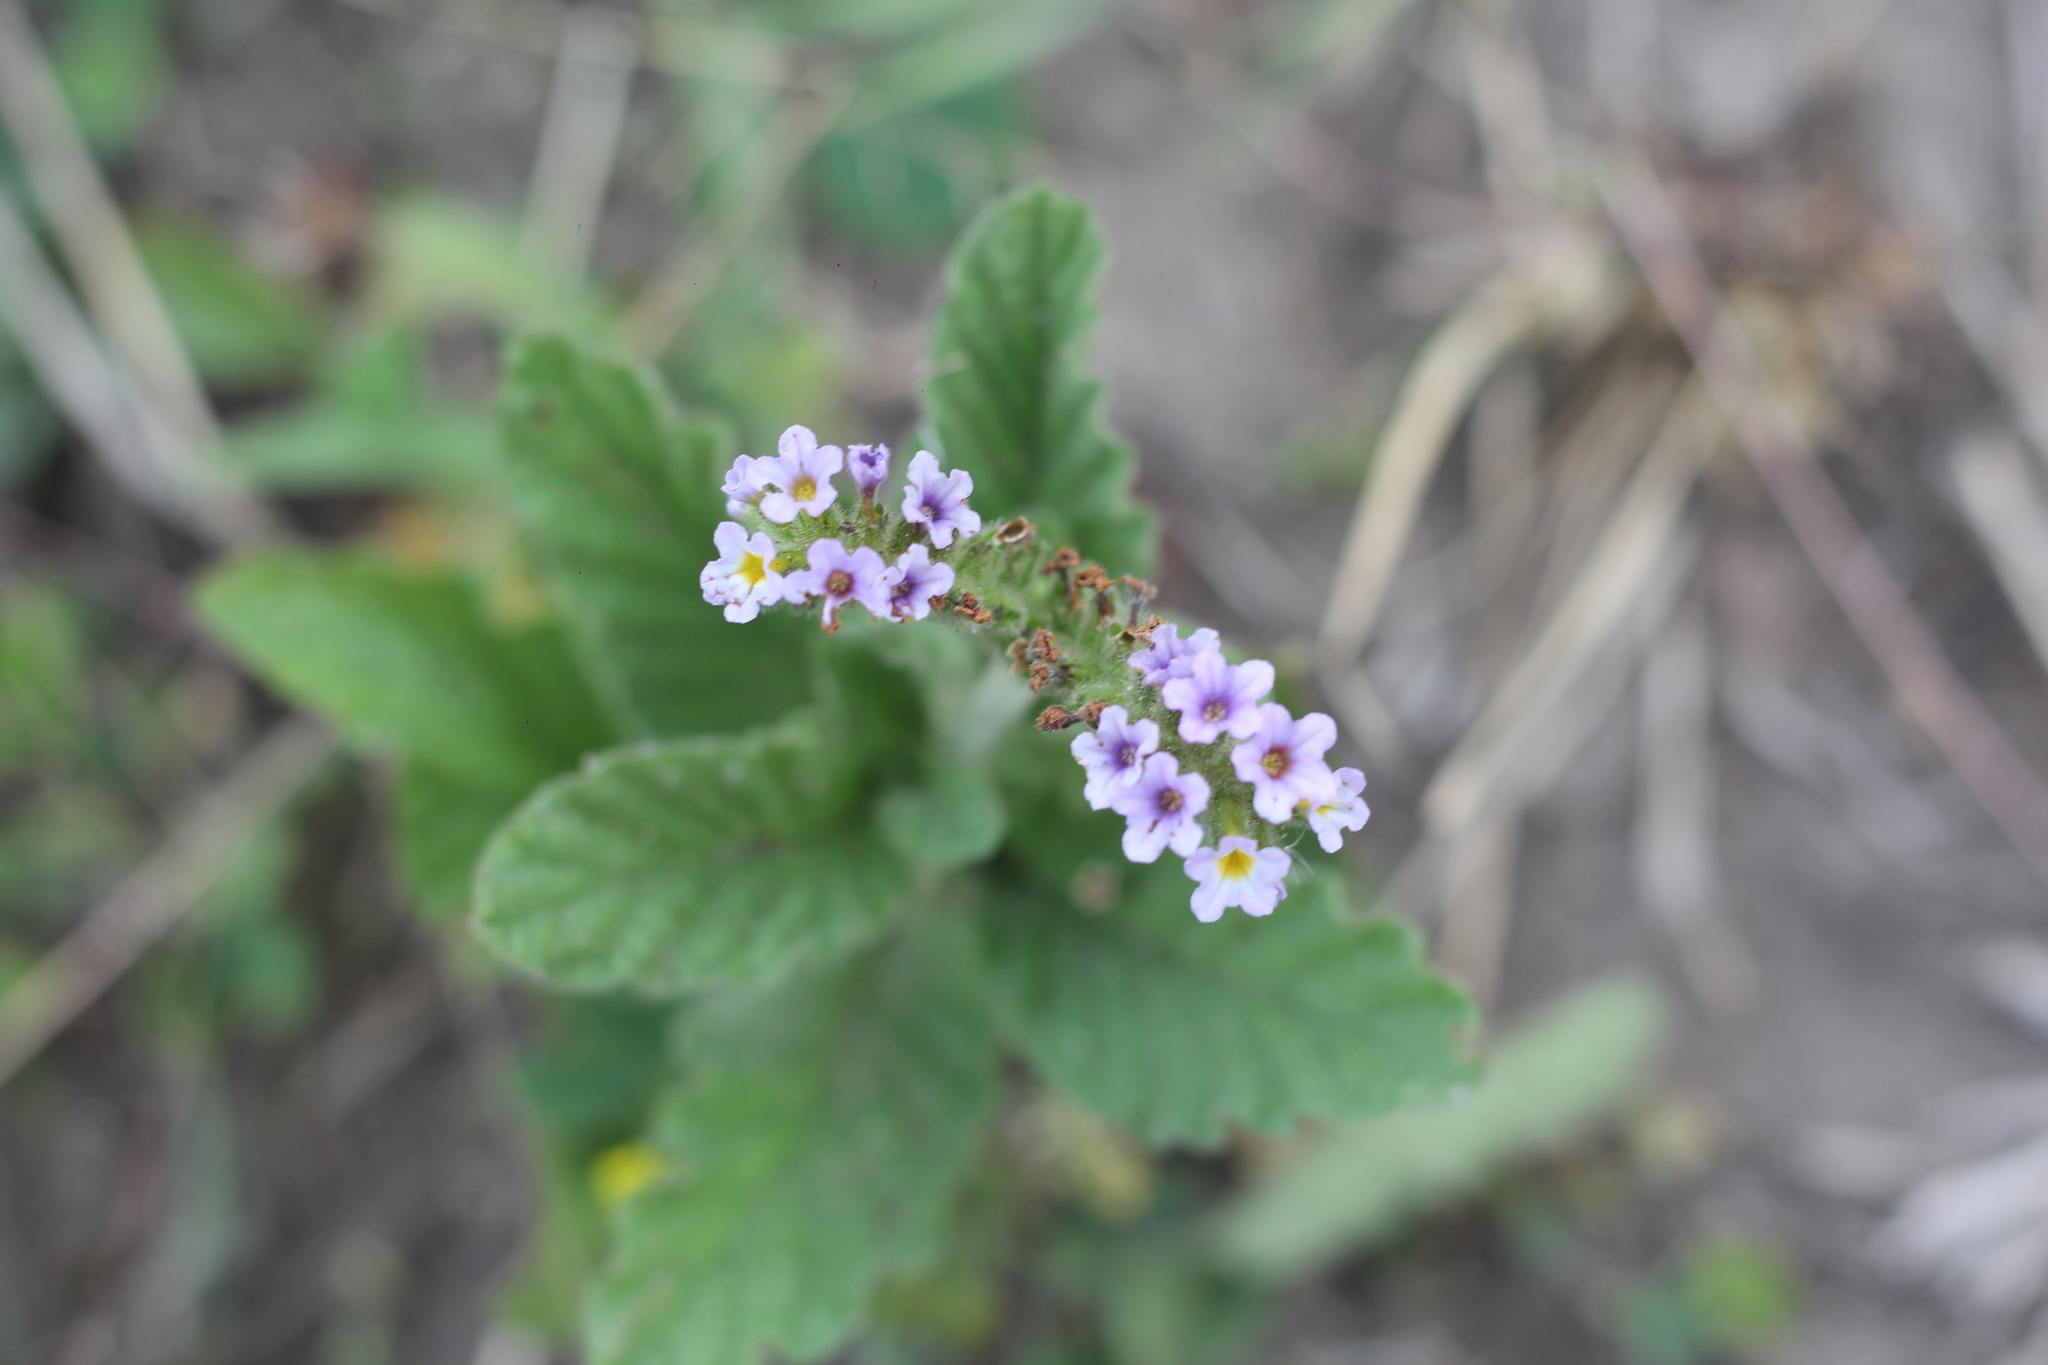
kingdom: Plantae
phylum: Tracheophyta
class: Magnoliopsida
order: Boraginales
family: Heliotropiaceae
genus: Heliotropium
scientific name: Heliotropium amplexicaule
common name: Clasping heliotrope
